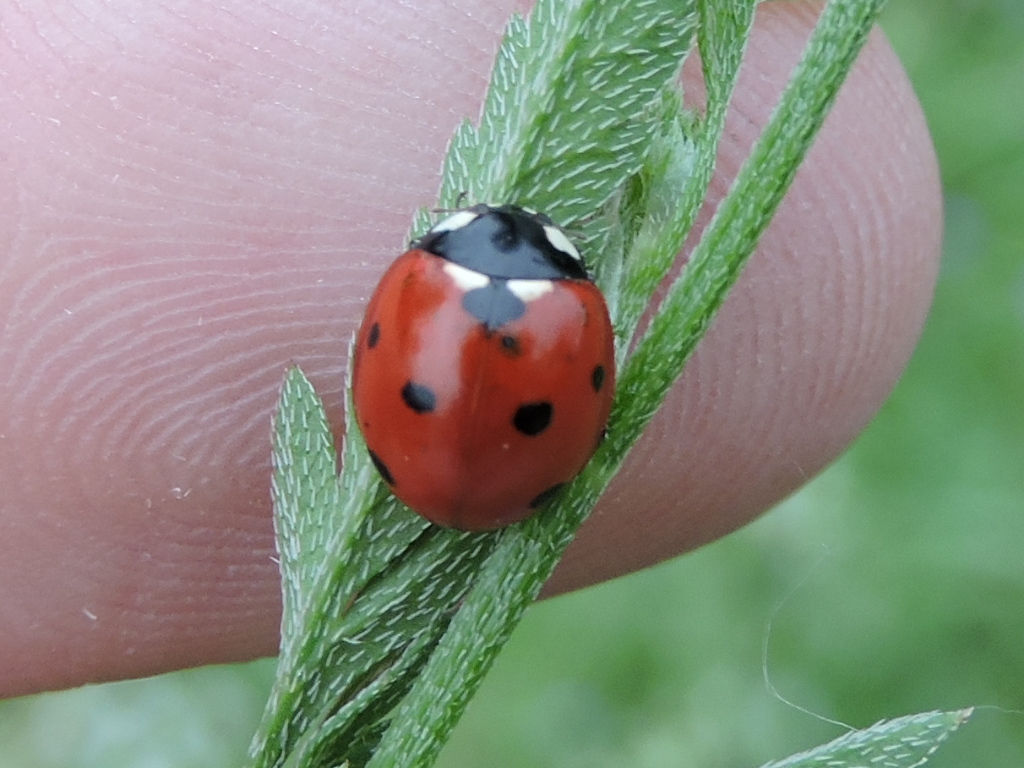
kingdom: Animalia
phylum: Arthropoda
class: Insecta
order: Coleoptera
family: Coccinellidae
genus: Coccinella
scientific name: Coccinella septempunctata
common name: Sevenspotted lady beetle
